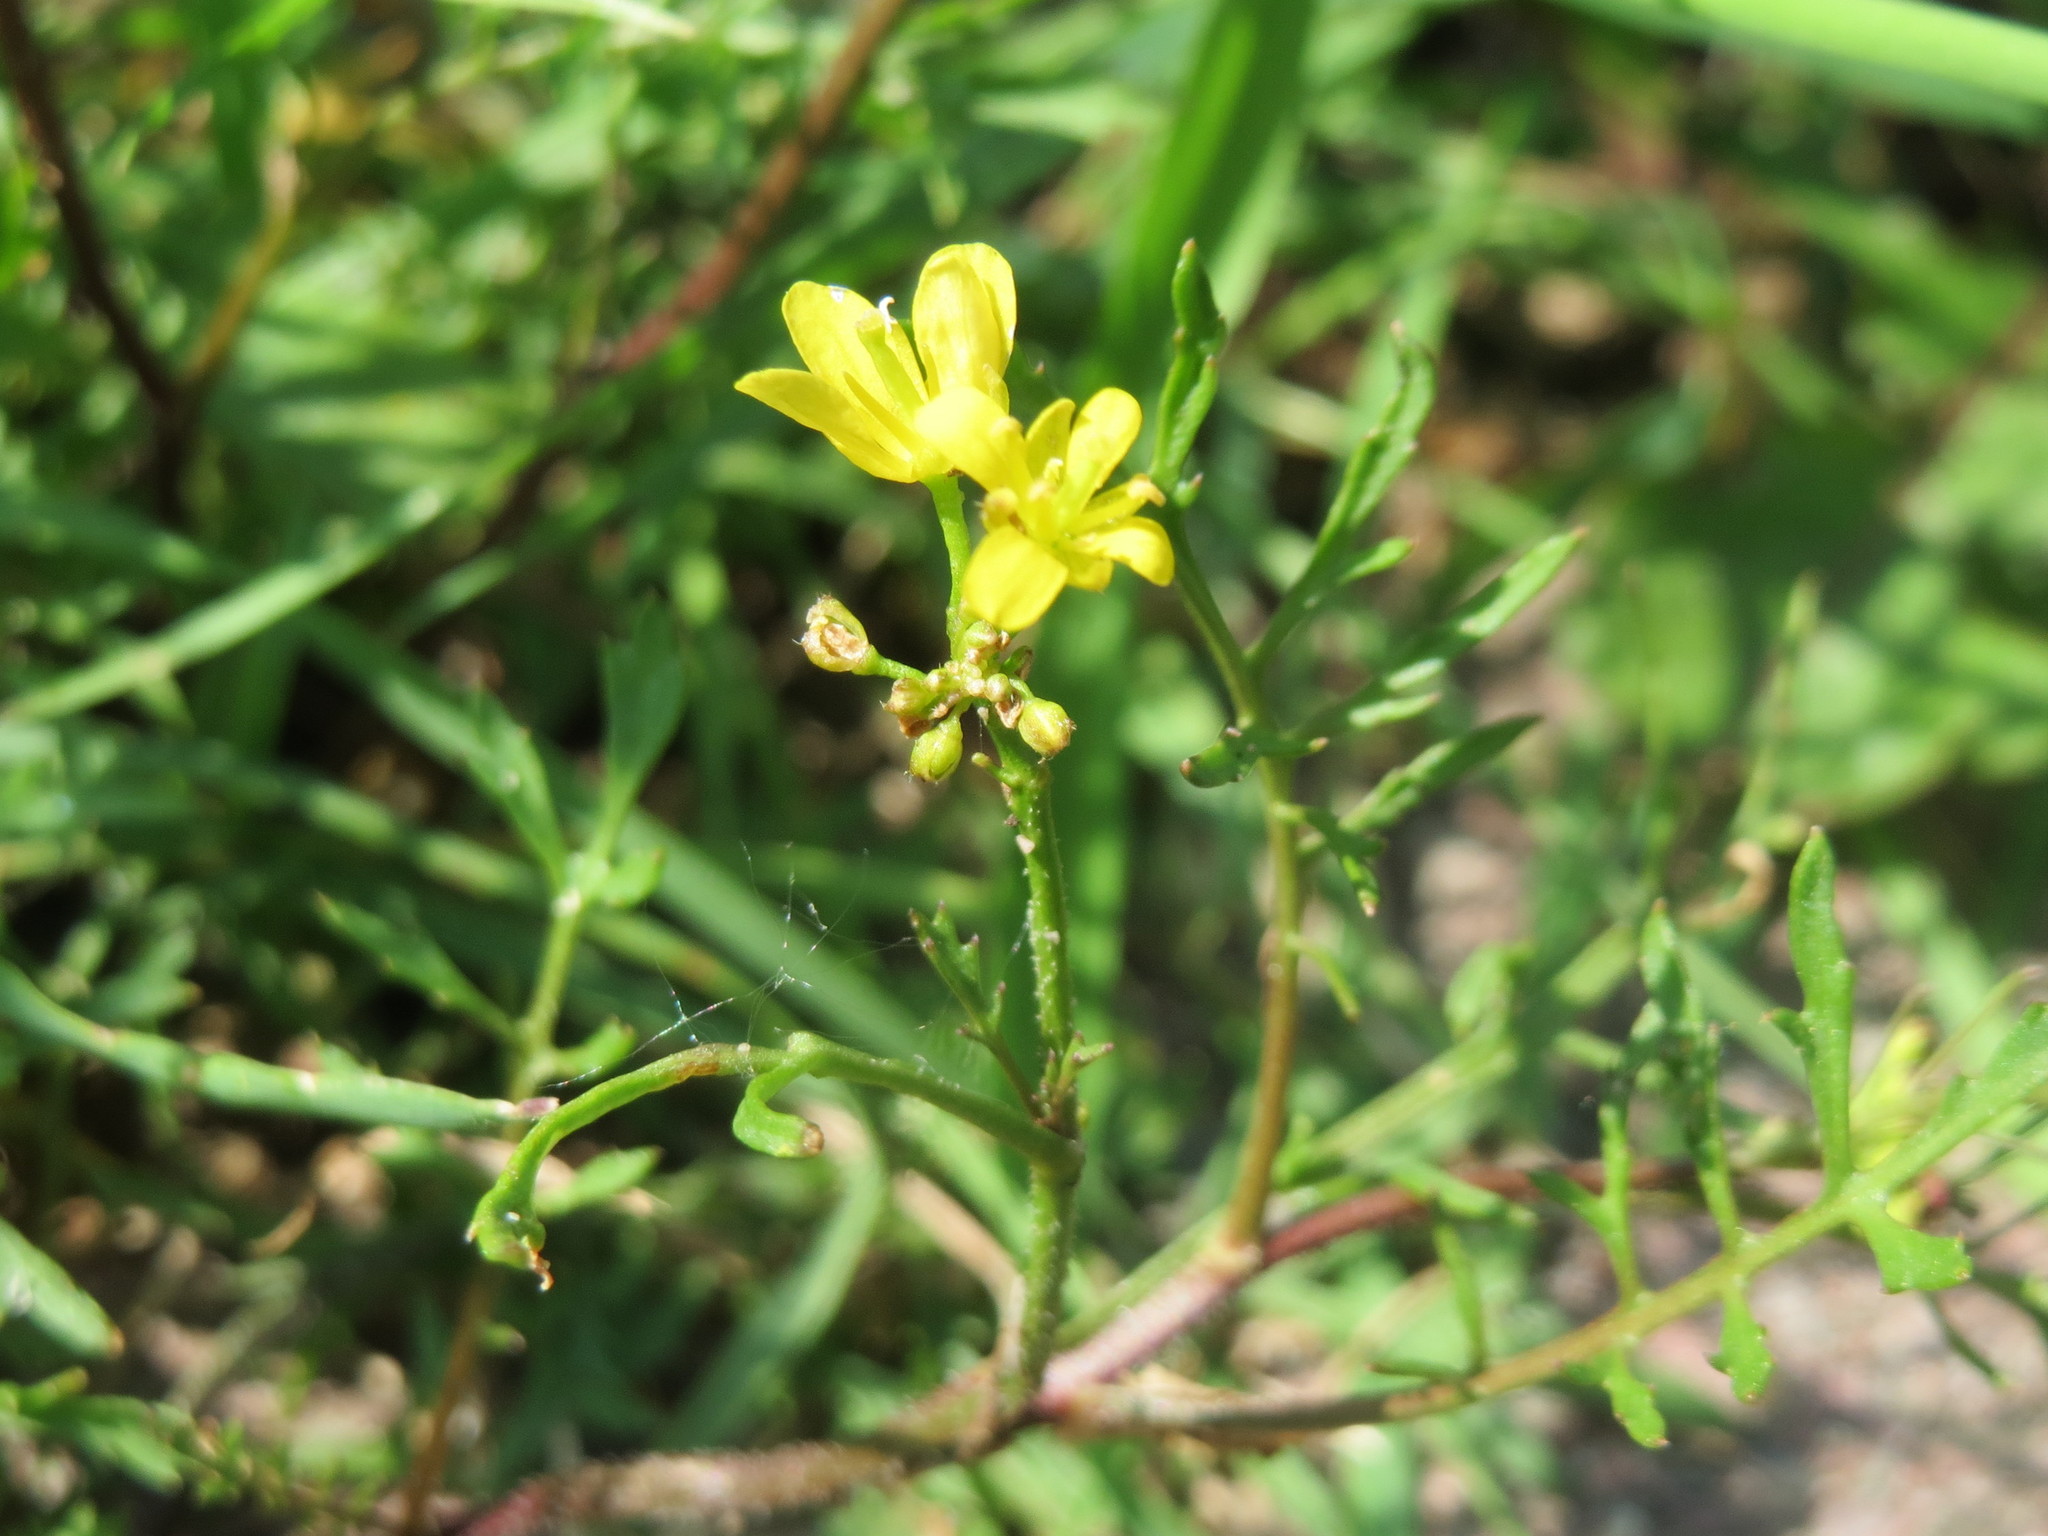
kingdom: Plantae
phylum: Tracheophyta
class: Magnoliopsida
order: Brassicales
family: Brassicaceae
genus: Rorippa
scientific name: Rorippa sylvestris
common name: Creeping yellowcress
